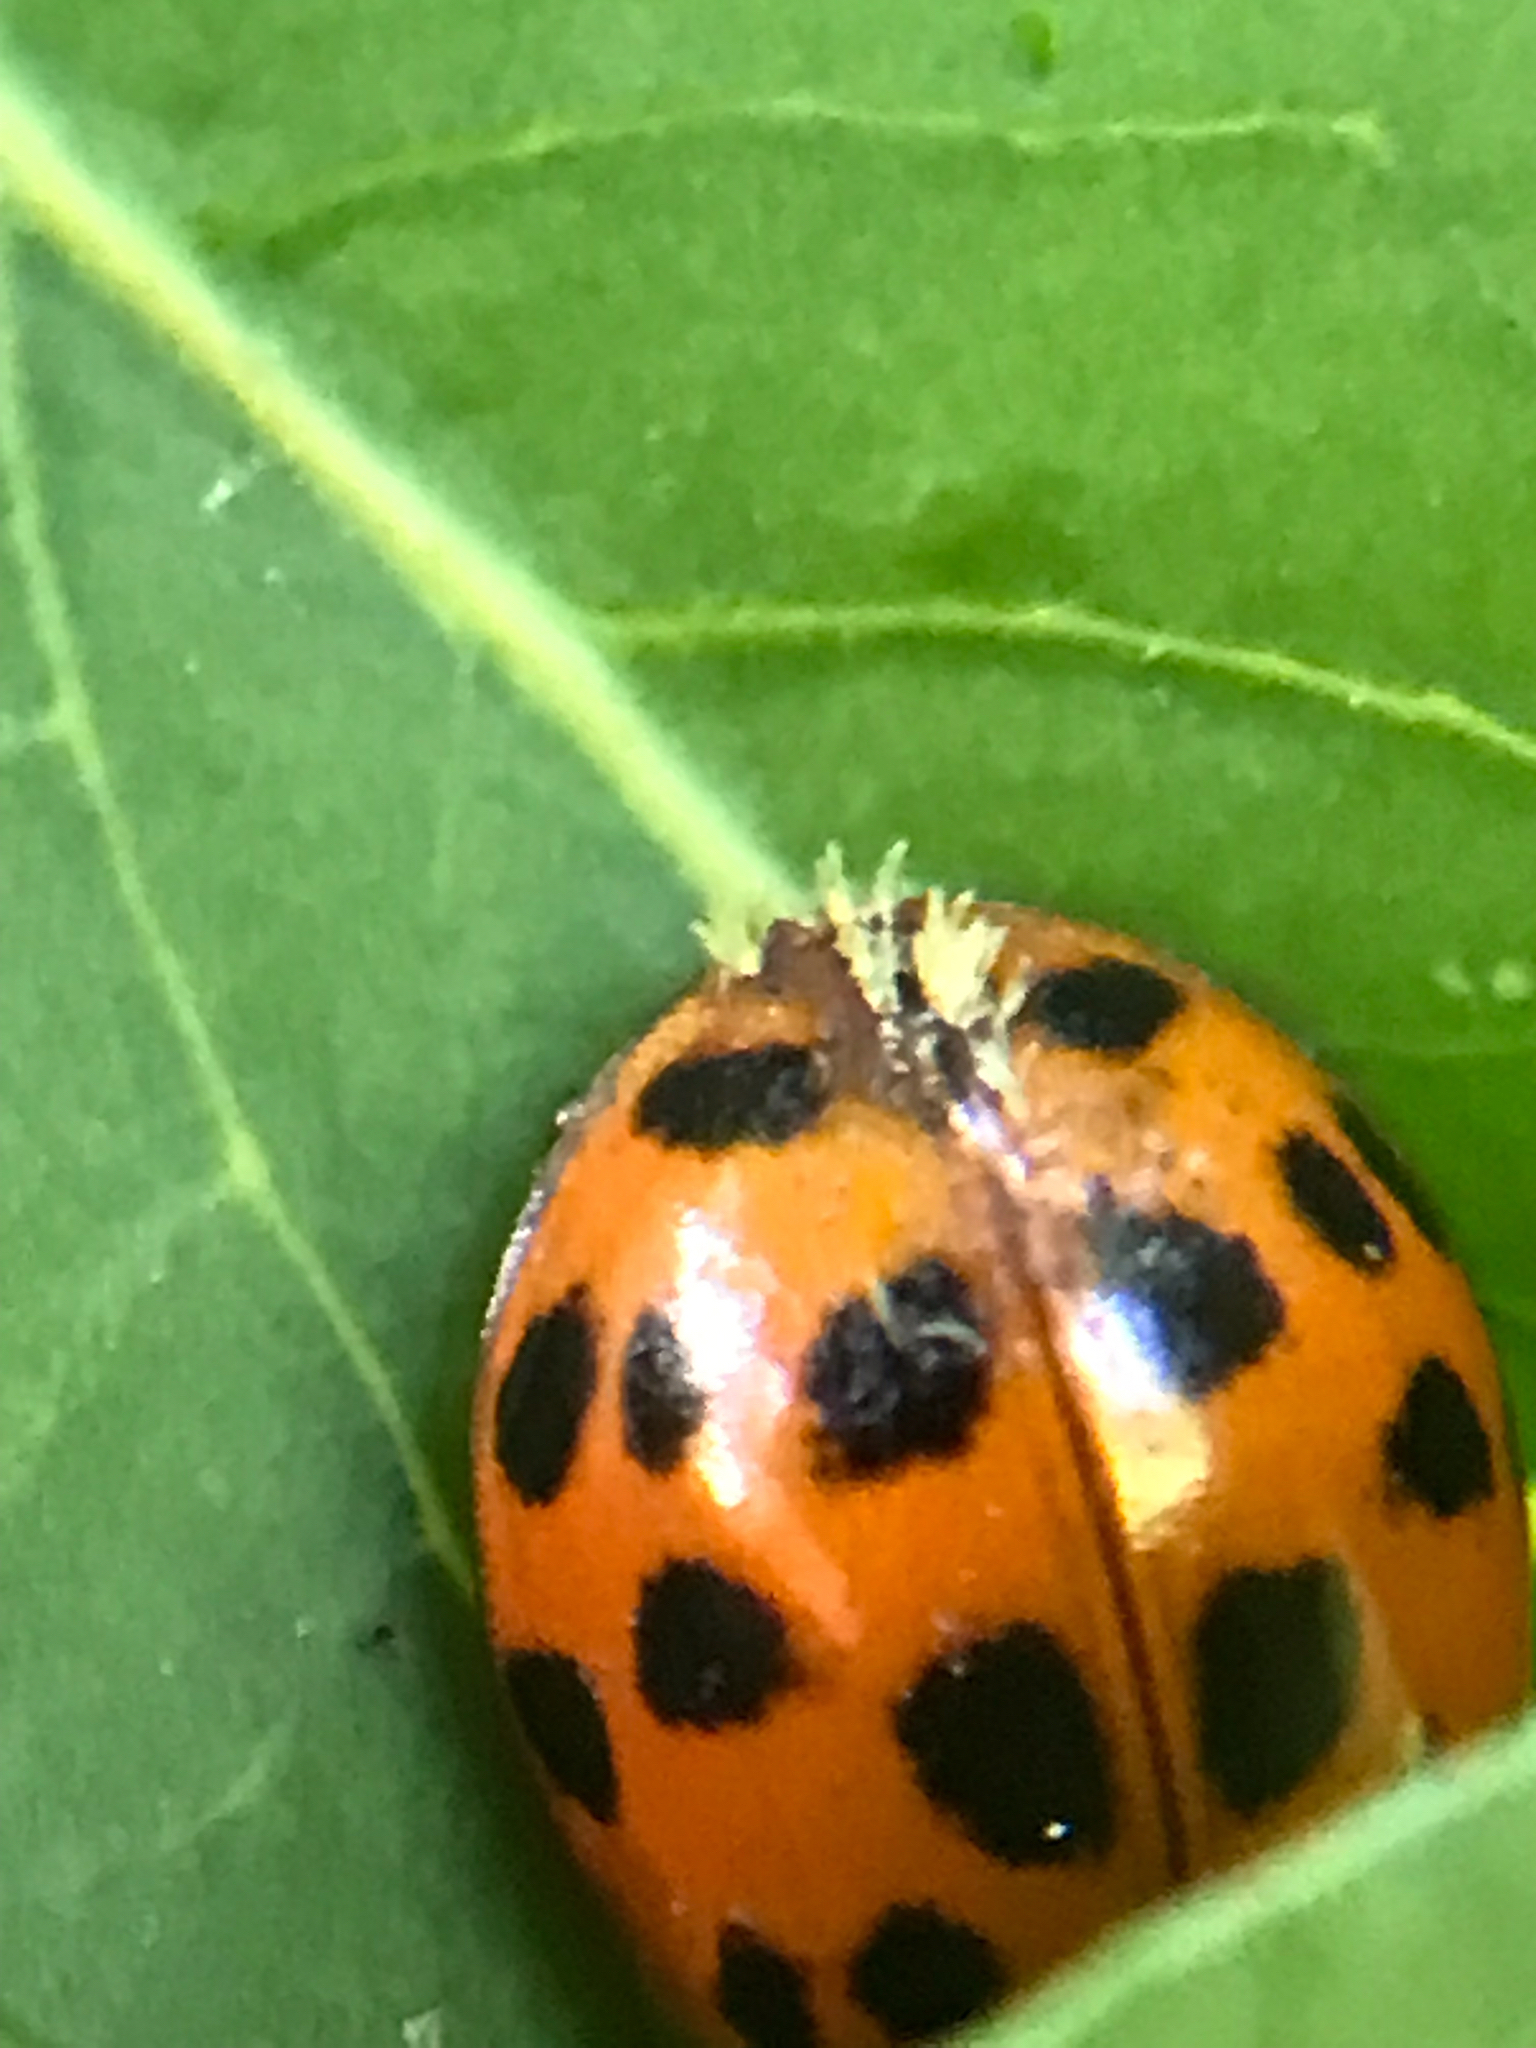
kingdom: Fungi
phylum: Ascomycota
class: Laboulbeniomycetes
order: Laboulbeniales
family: Laboulbeniaceae
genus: Hesperomyces
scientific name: Hesperomyces harmoniae
